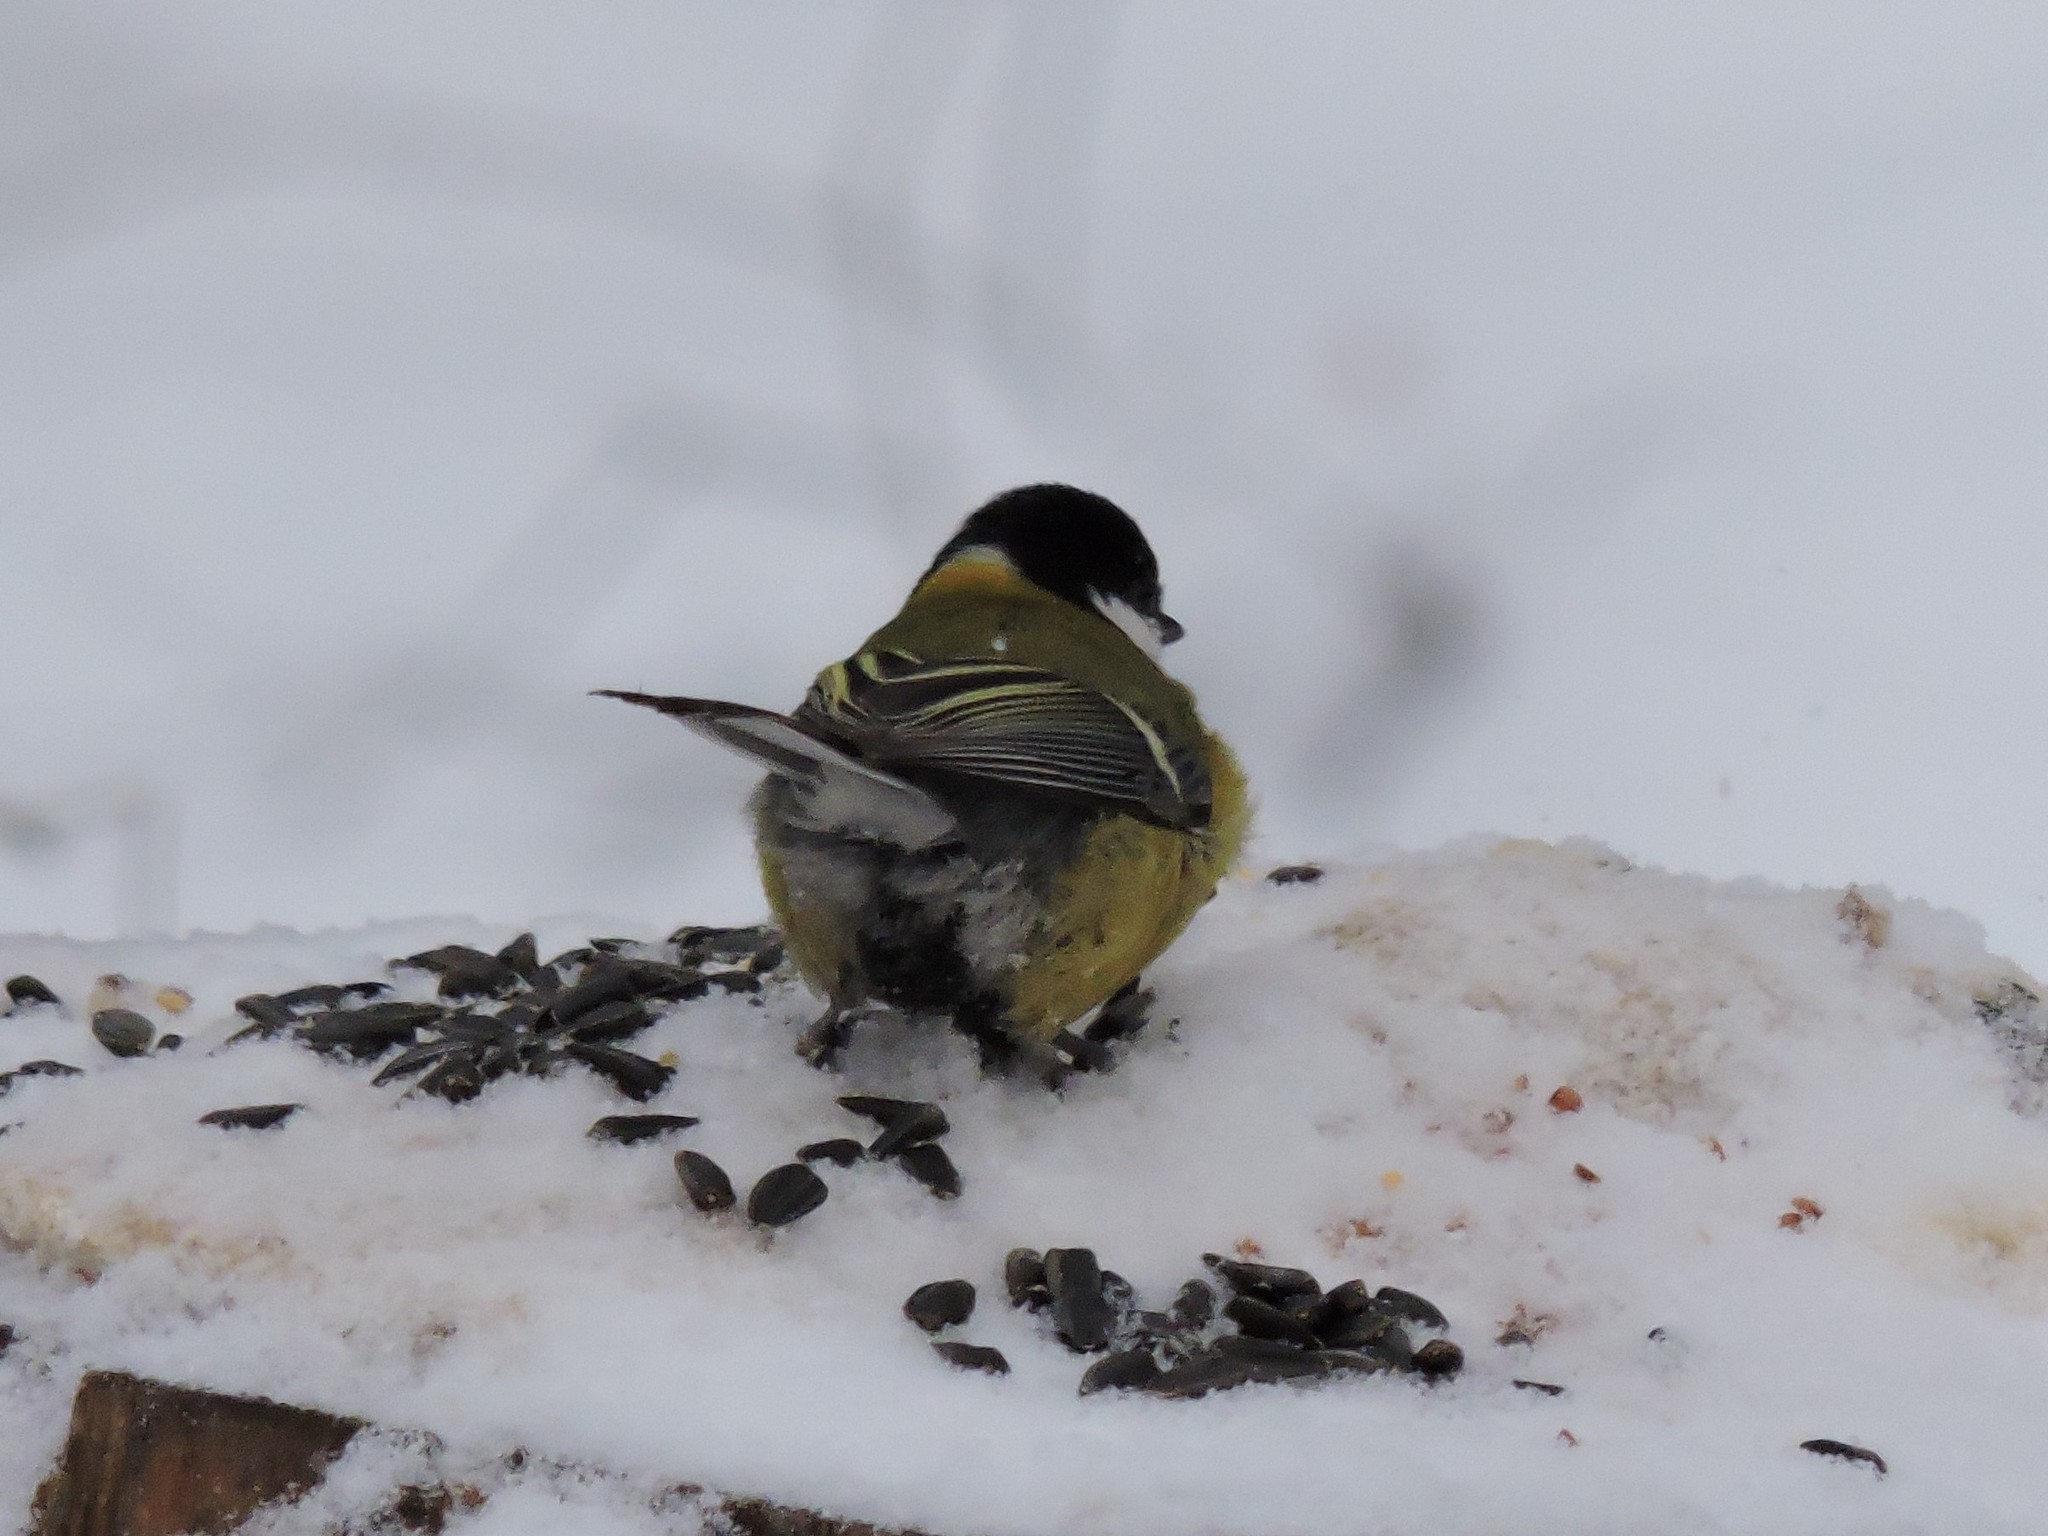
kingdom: Animalia
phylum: Chordata
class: Aves
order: Passeriformes
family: Paridae
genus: Parus
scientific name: Parus major
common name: Great tit
